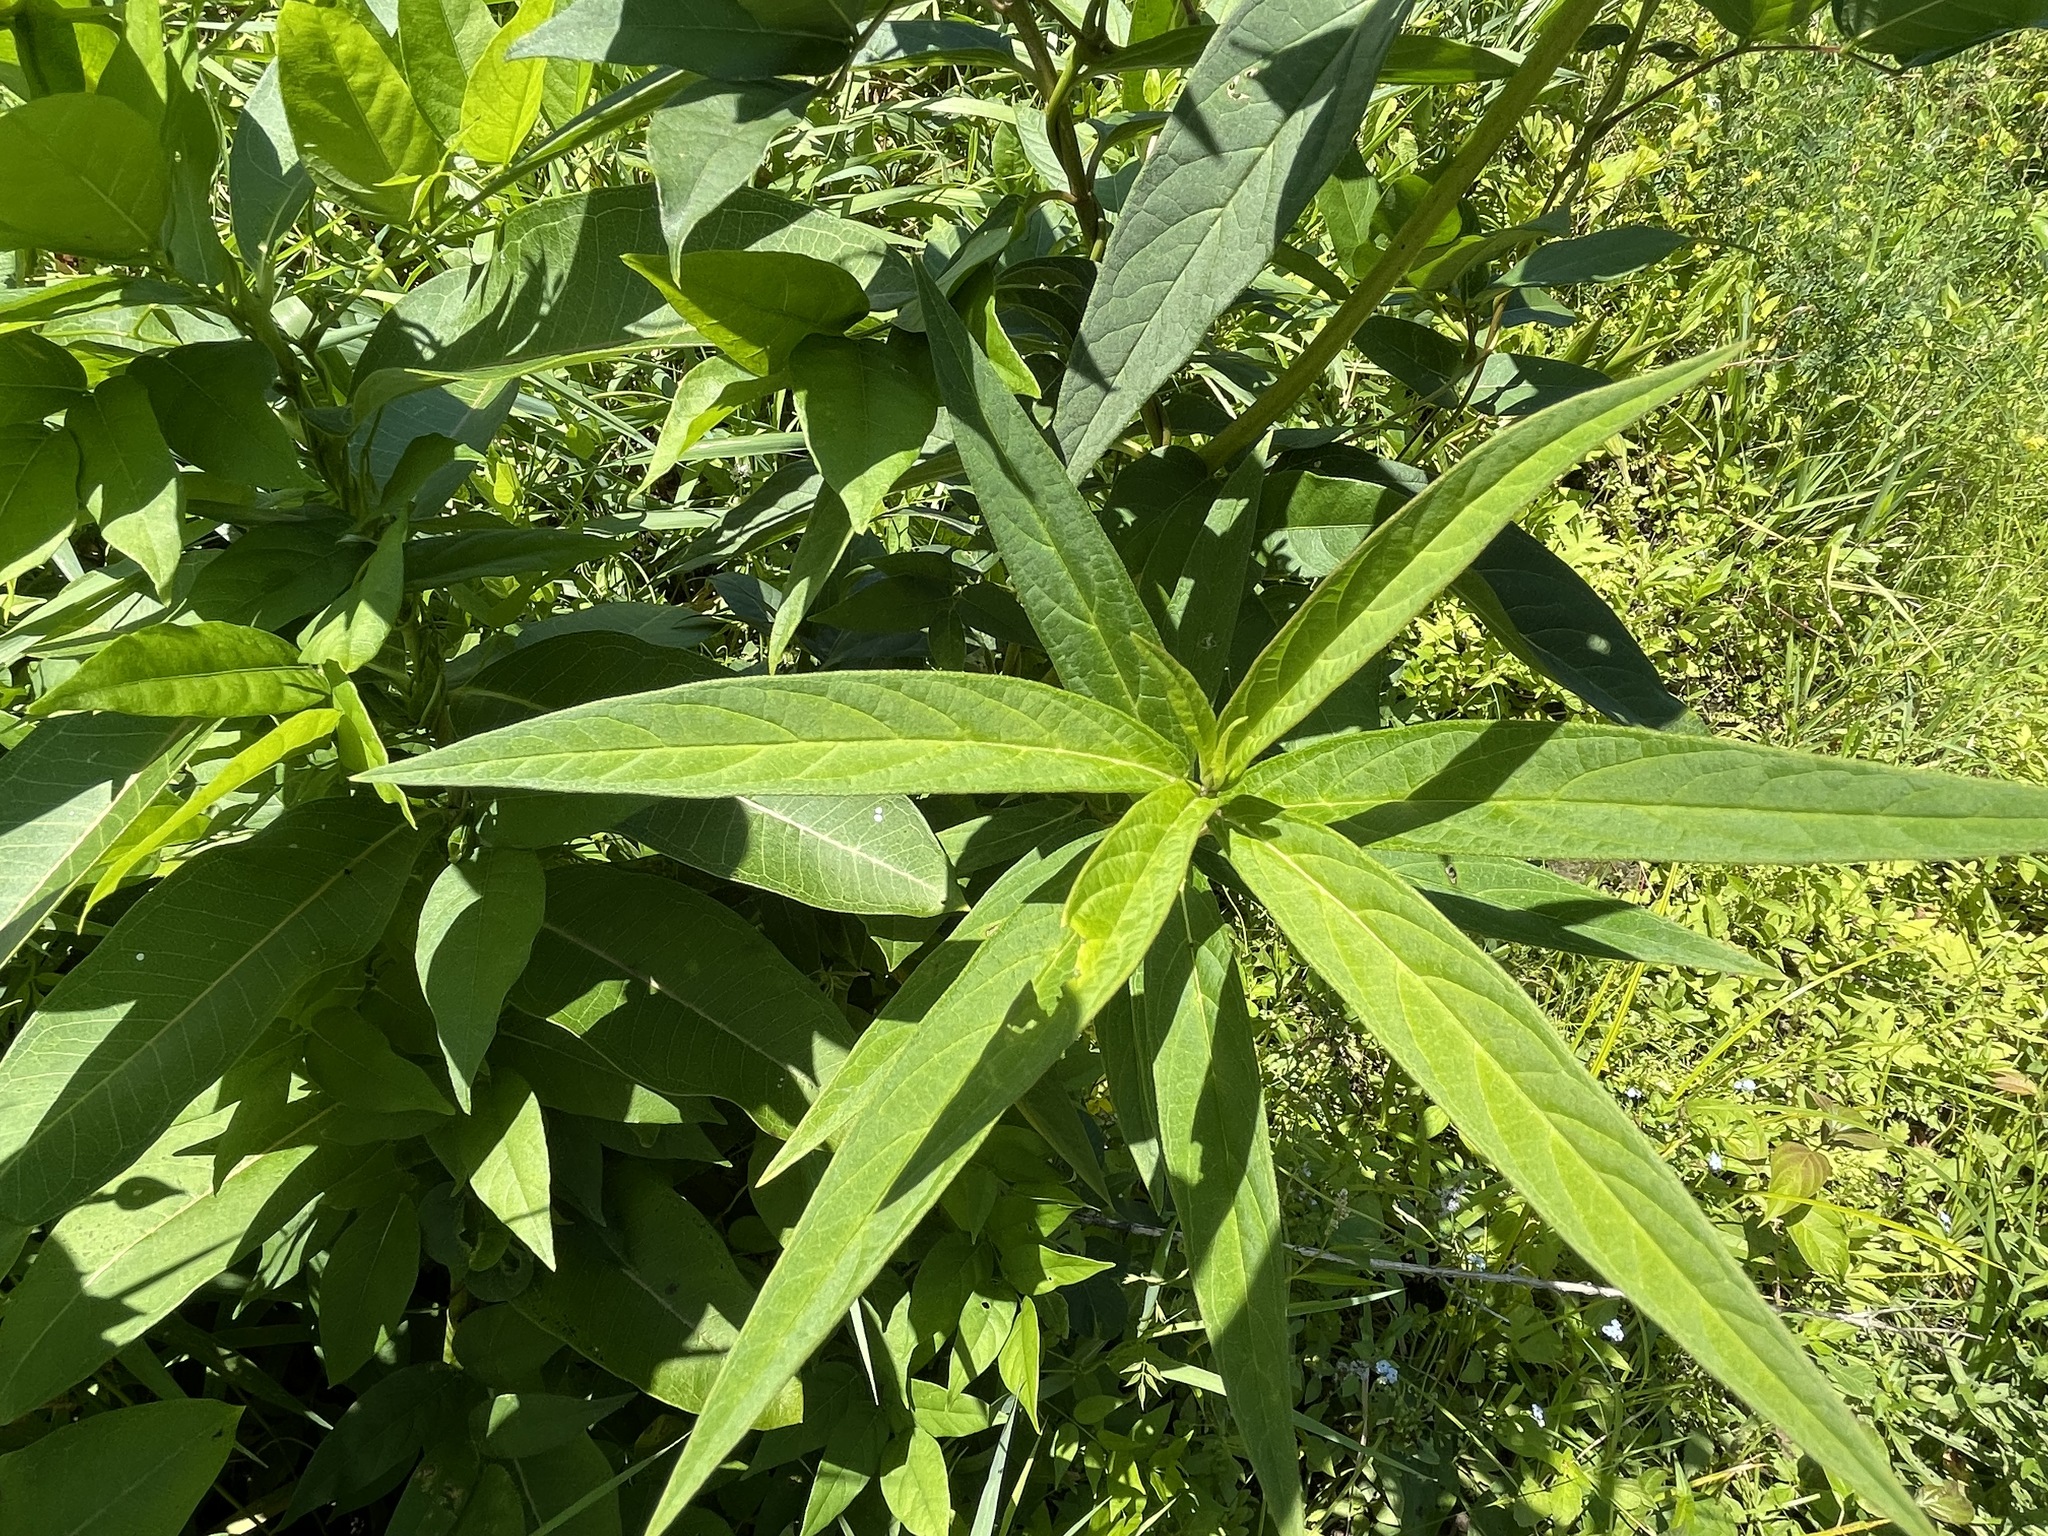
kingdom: Plantae
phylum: Tracheophyta
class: Magnoliopsida
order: Gentianales
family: Apocynaceae
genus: Asclepias
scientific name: Asclepias incarnata
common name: Swamp milkweed
